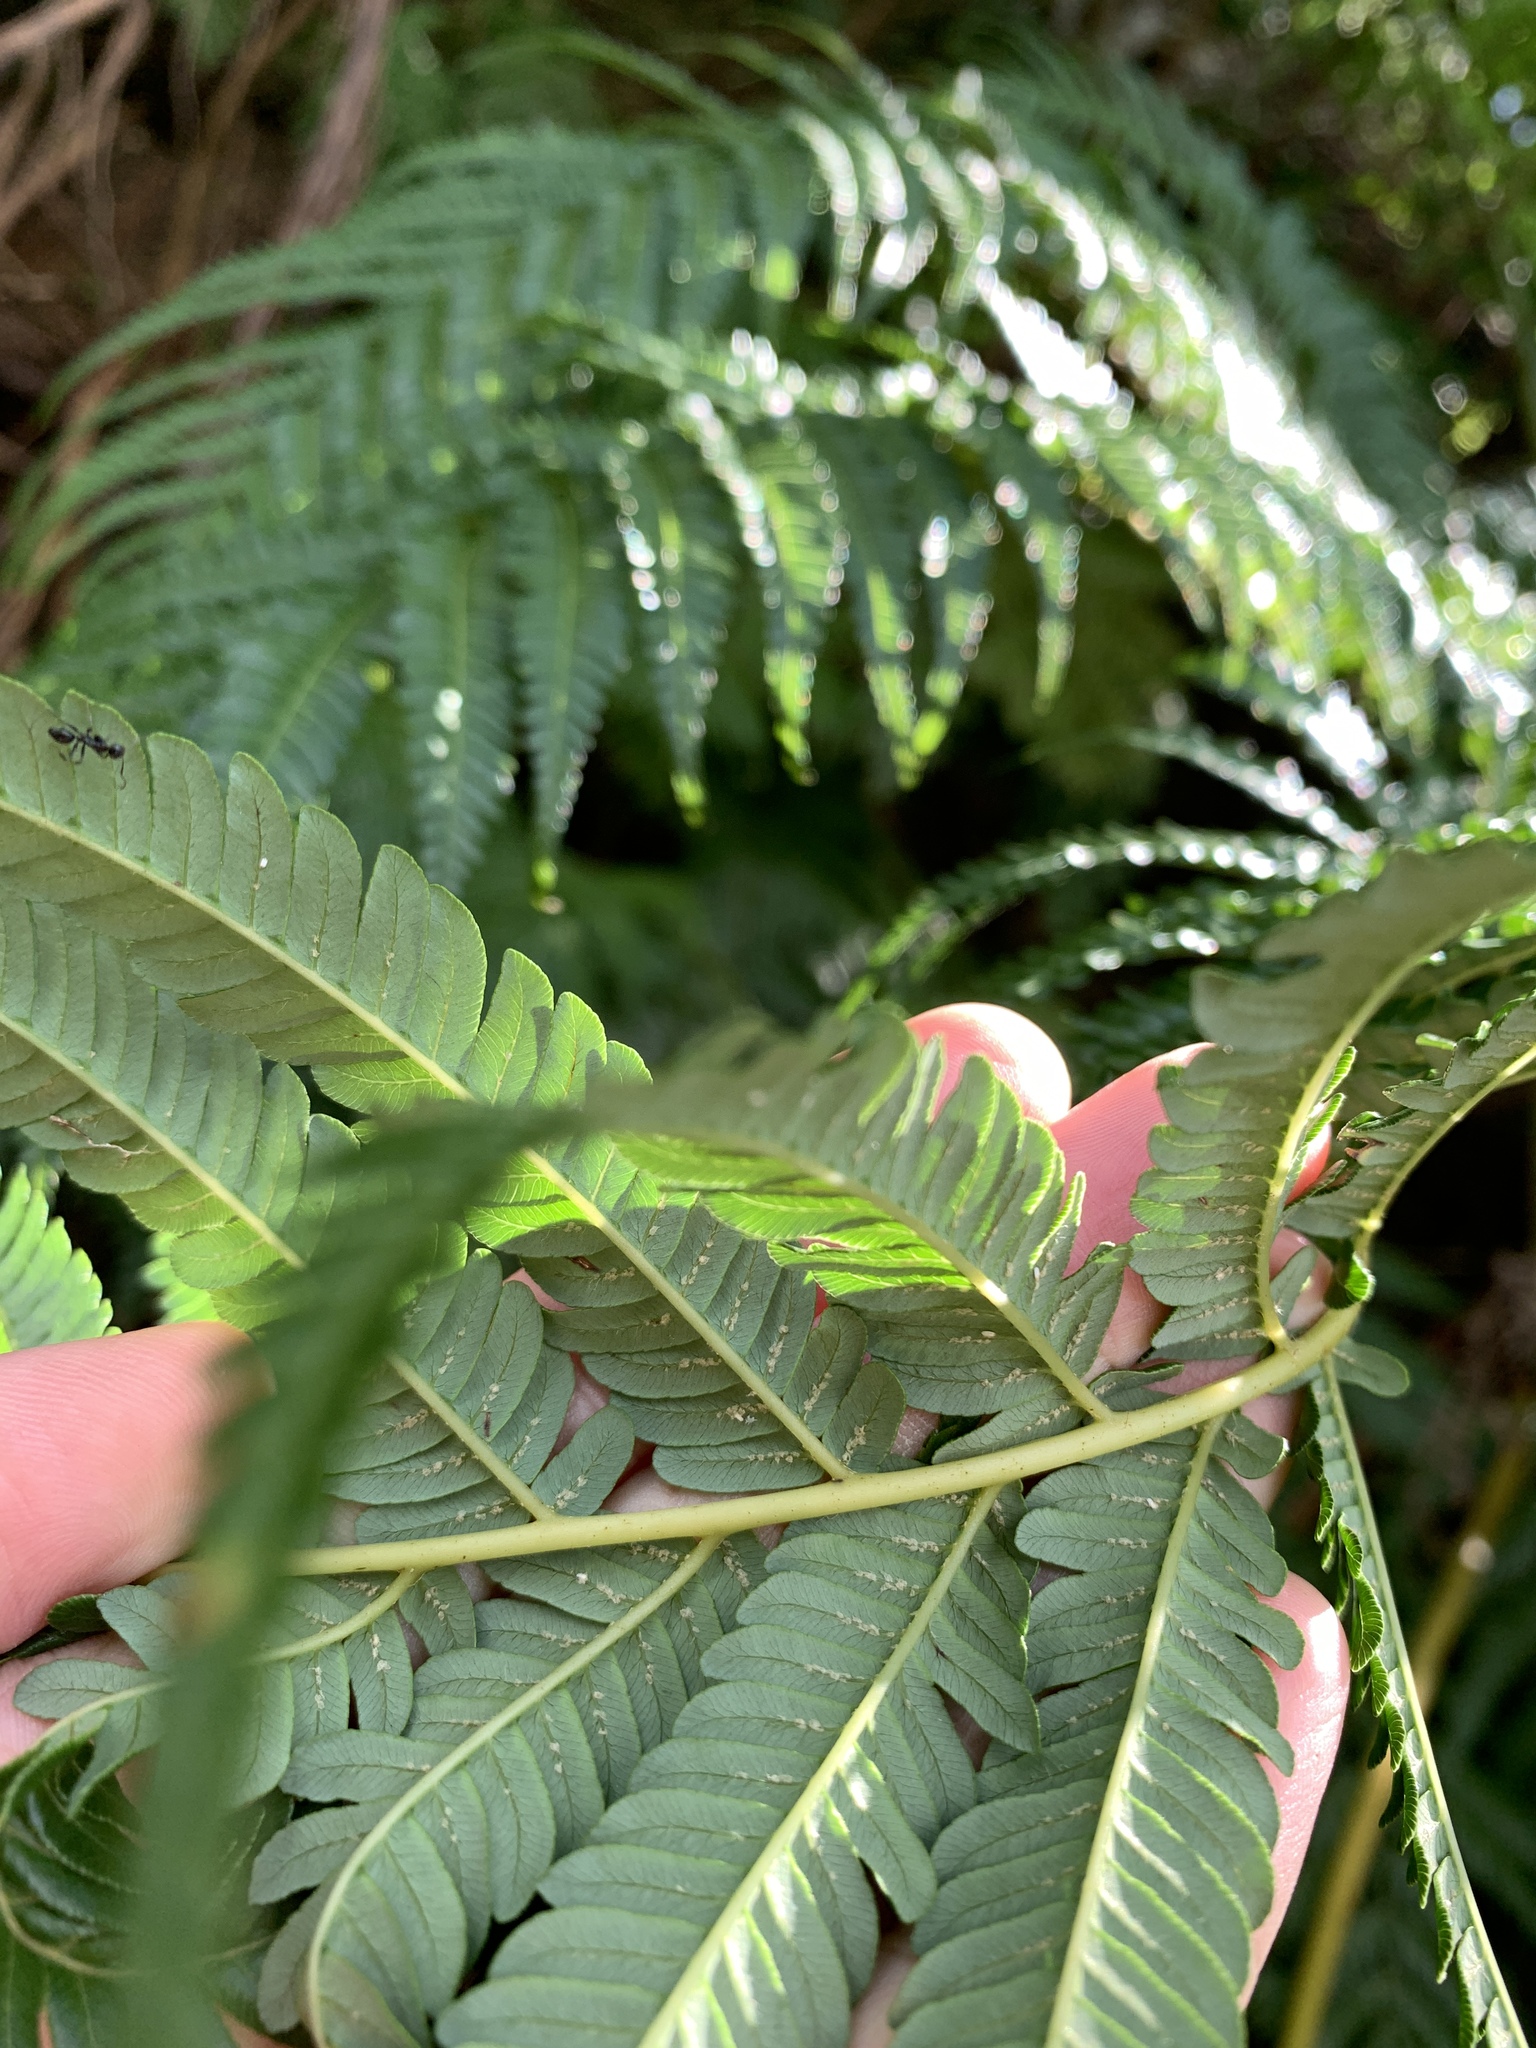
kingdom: Plantae
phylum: Tracheophyta
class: Polypodiopsida
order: Cyatheales
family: Cyatheaceae
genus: Alsophila
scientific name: Alsophila lepifera
